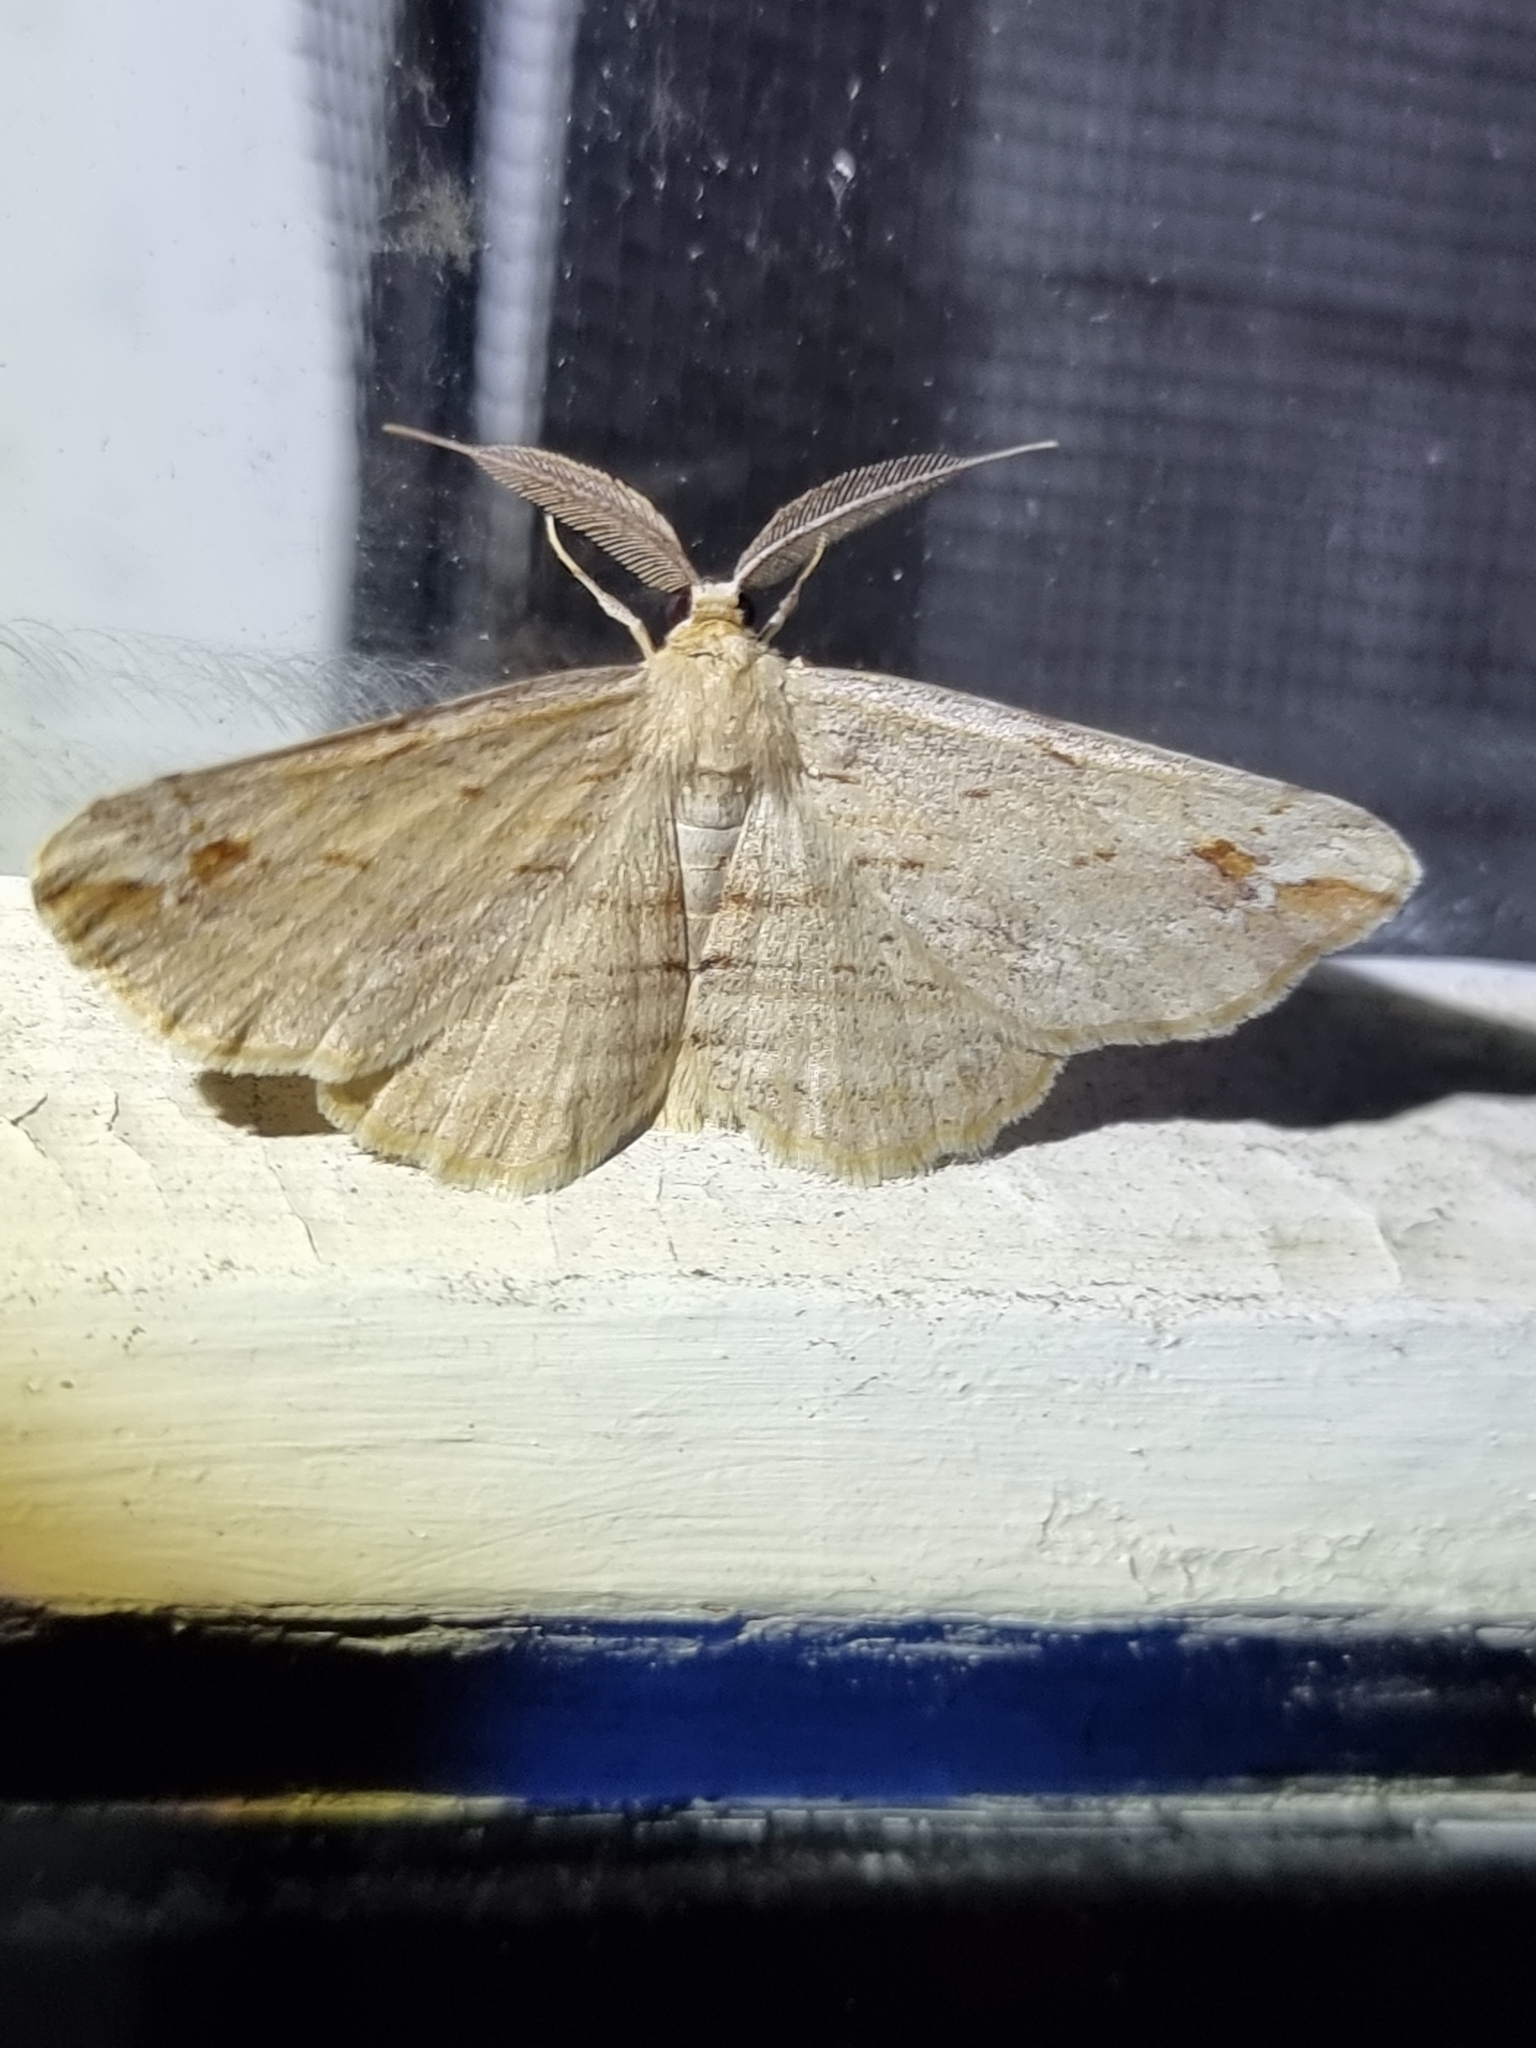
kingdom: Animalia
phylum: Arthropoda
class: Insecta
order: Lepidoptera
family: Geometridae
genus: Syneora
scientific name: Syneora lithina
